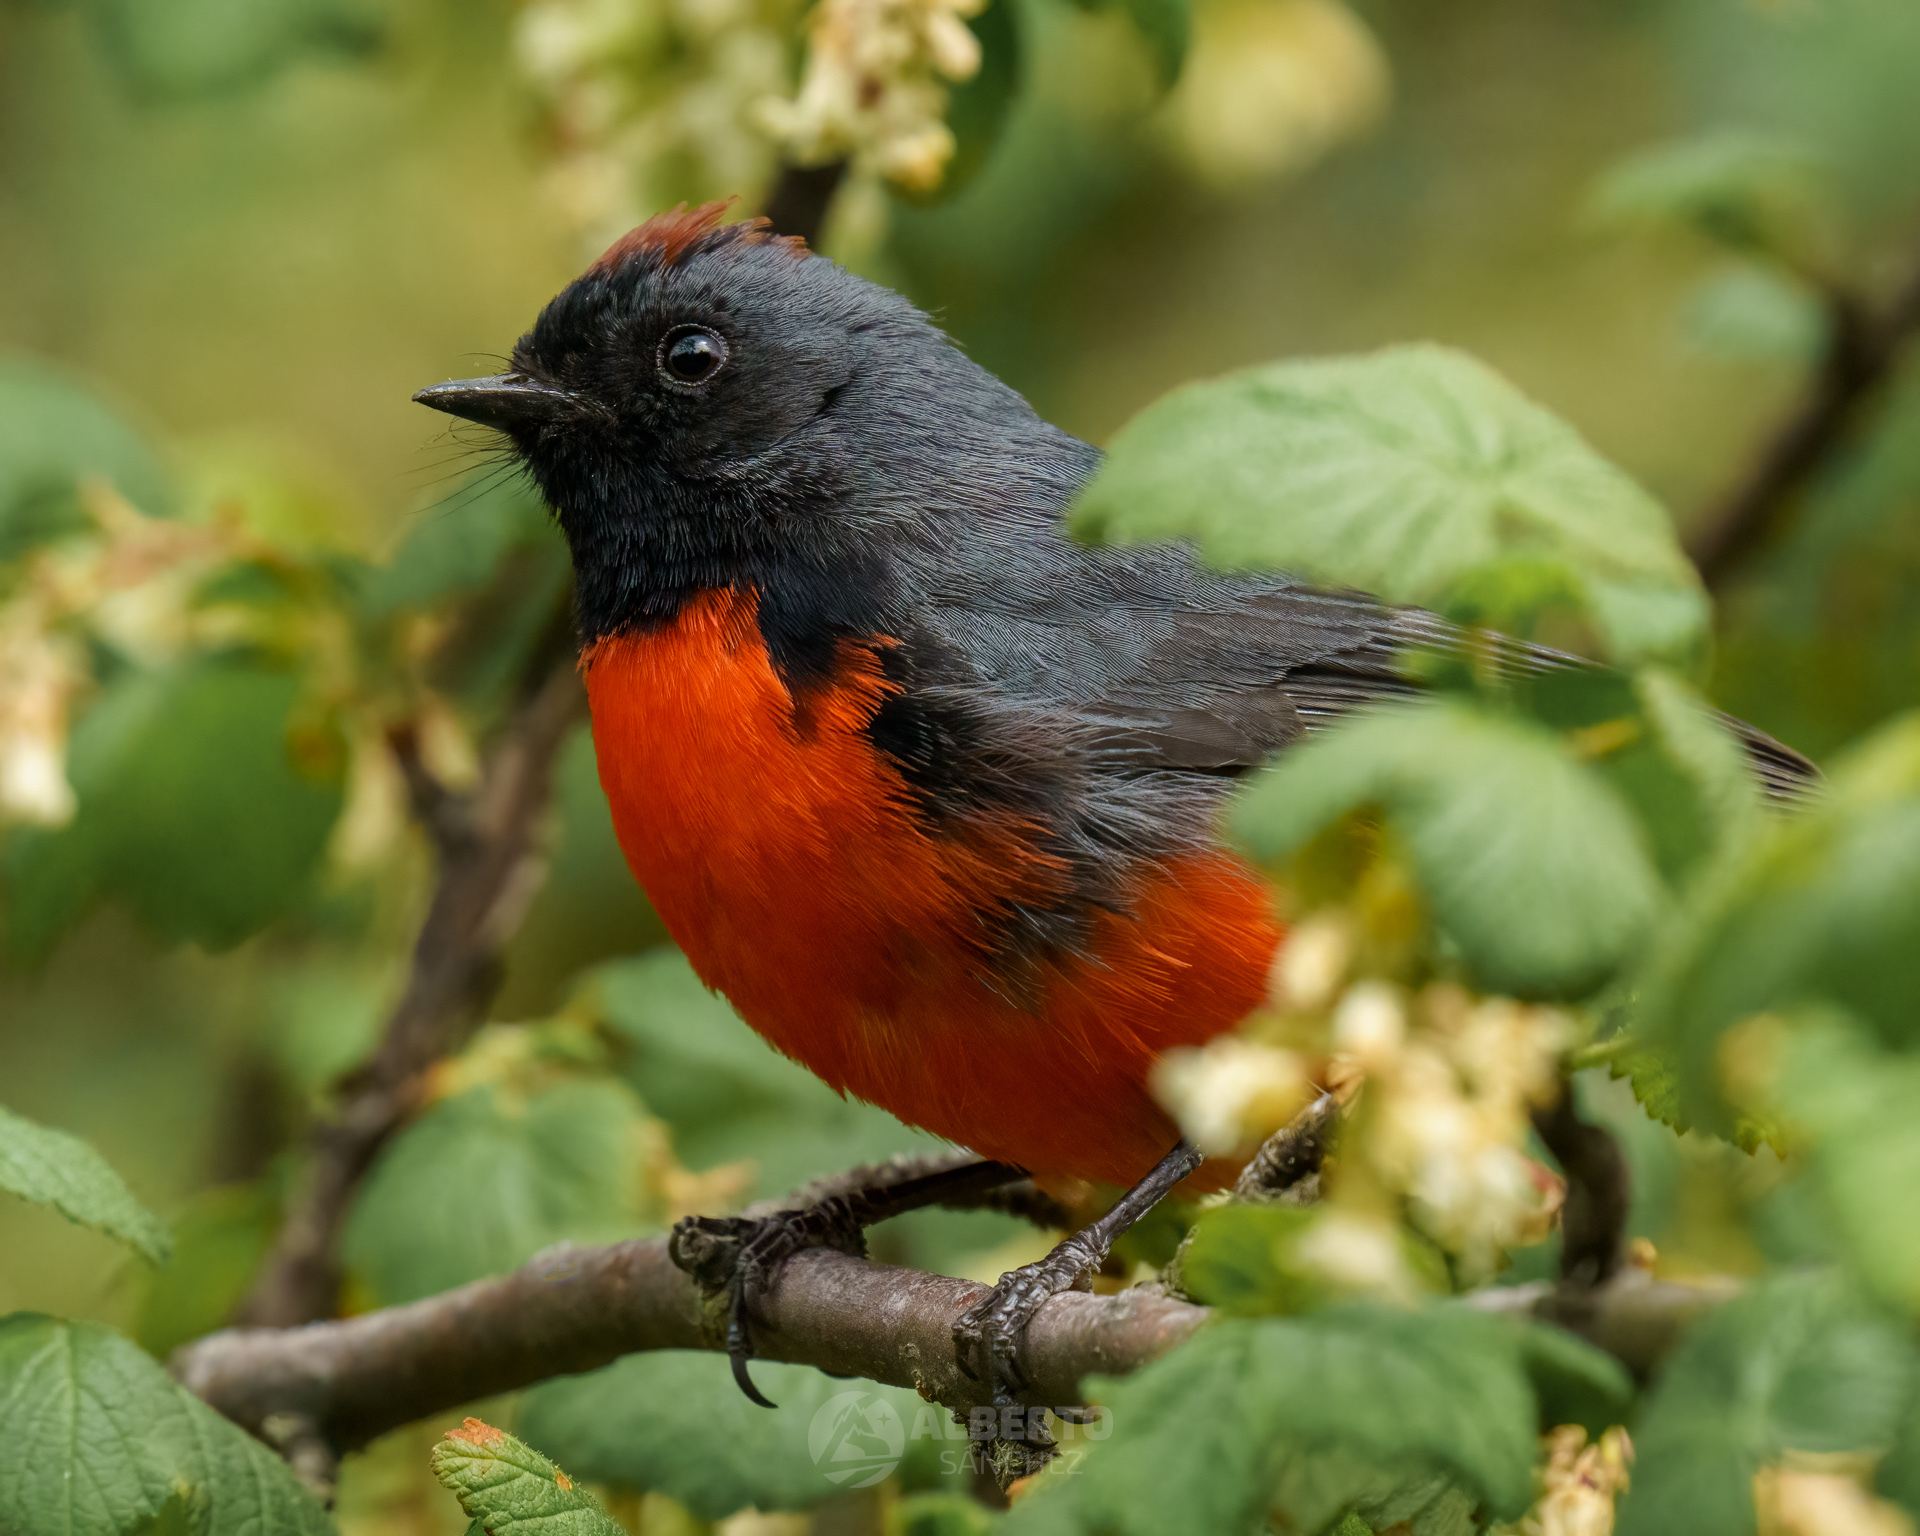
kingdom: Animalia
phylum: Chordata
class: Aves
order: Passeriformes
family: Parulidae
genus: Myioborus
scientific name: Myioborus miniatus
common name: Slate-throated redstart
